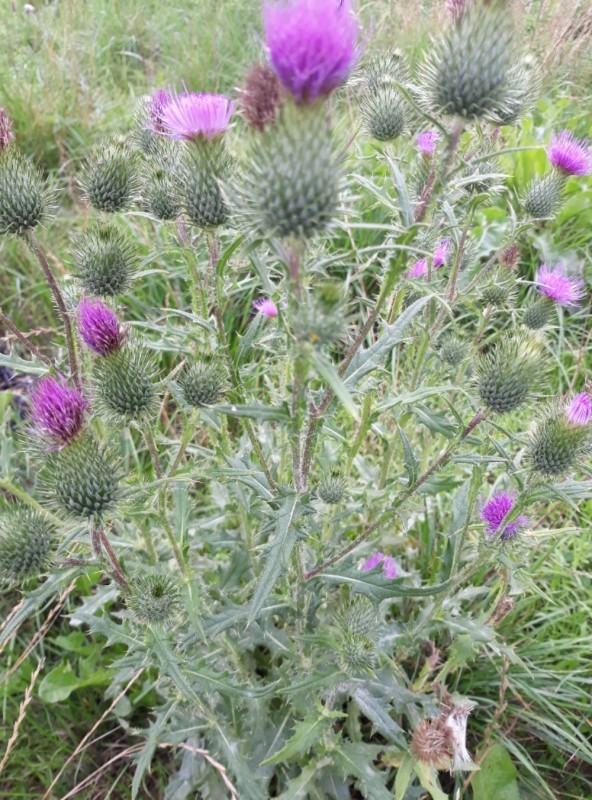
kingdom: Plantae
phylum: Tracheophyta
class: Magnoliopsida
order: Asterales
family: Asteraceae
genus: Cirsium
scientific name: Cirsium vulgare
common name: Bull thistle
